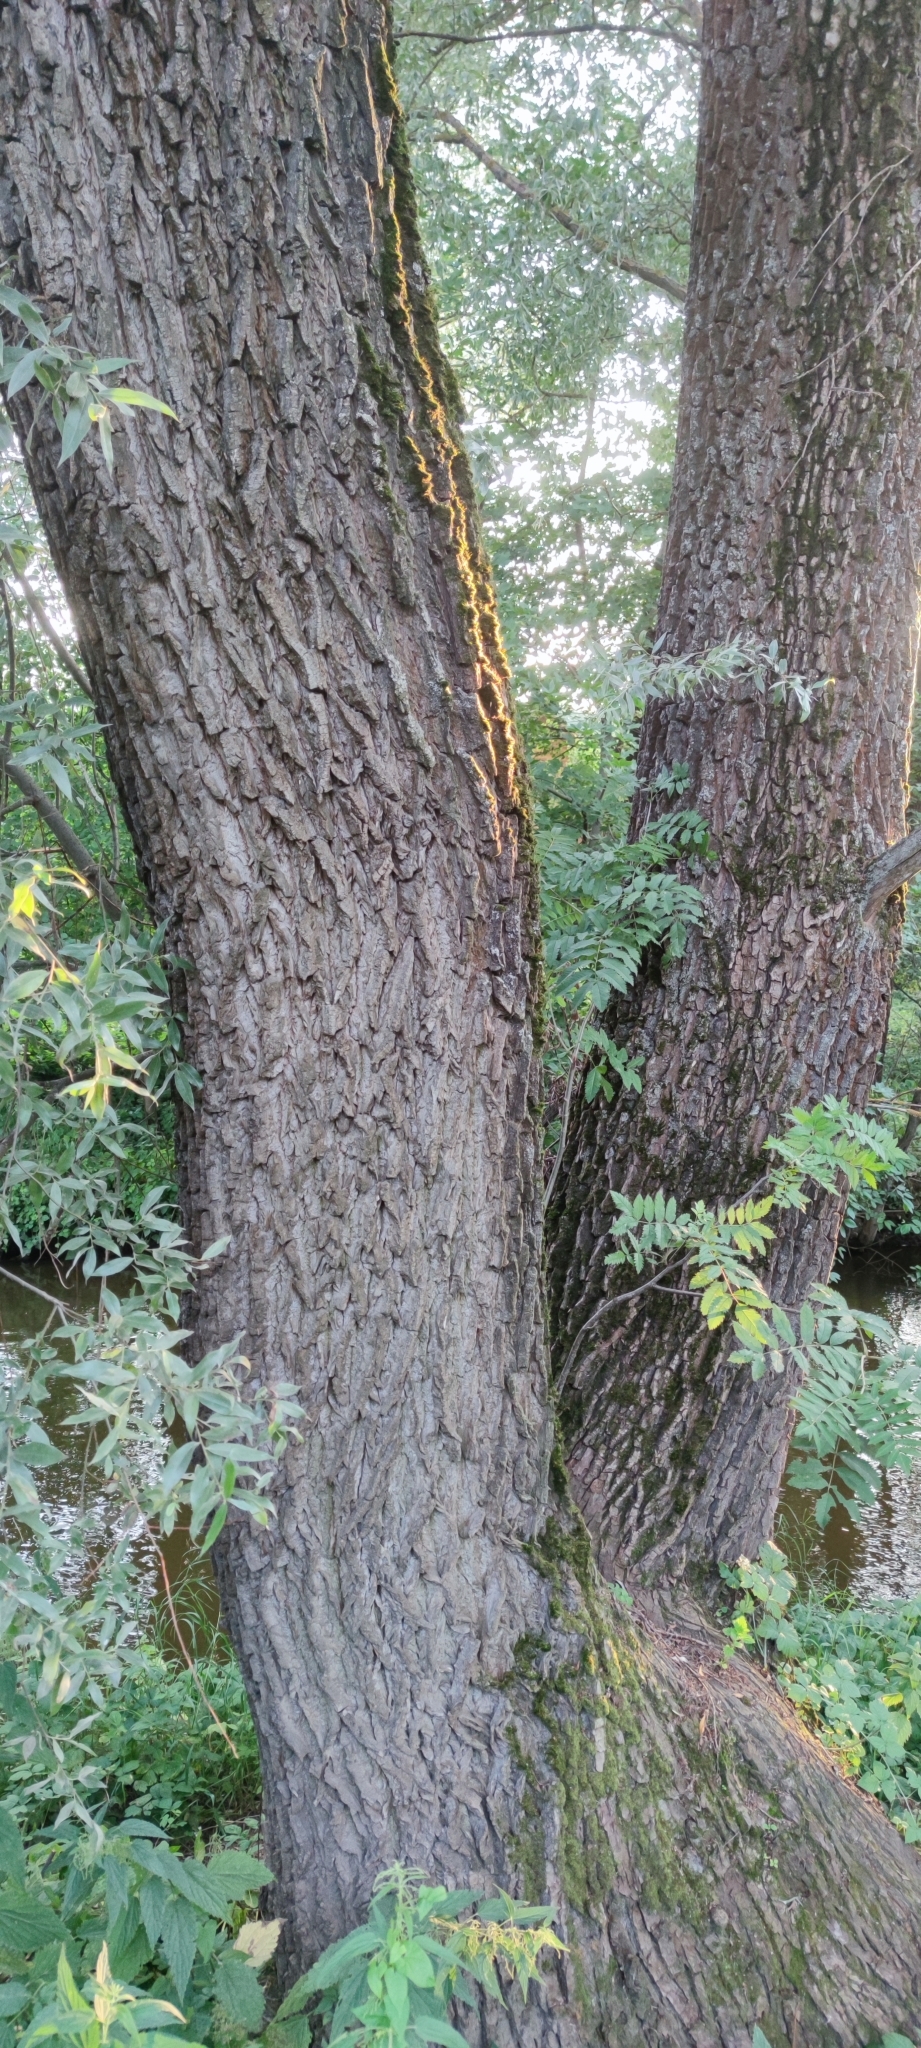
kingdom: Plantae
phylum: Tracheophyta
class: Magnoliopsida
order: Malpighiales
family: Salicaceae
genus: Salix
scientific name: Salix alba
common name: White willow
